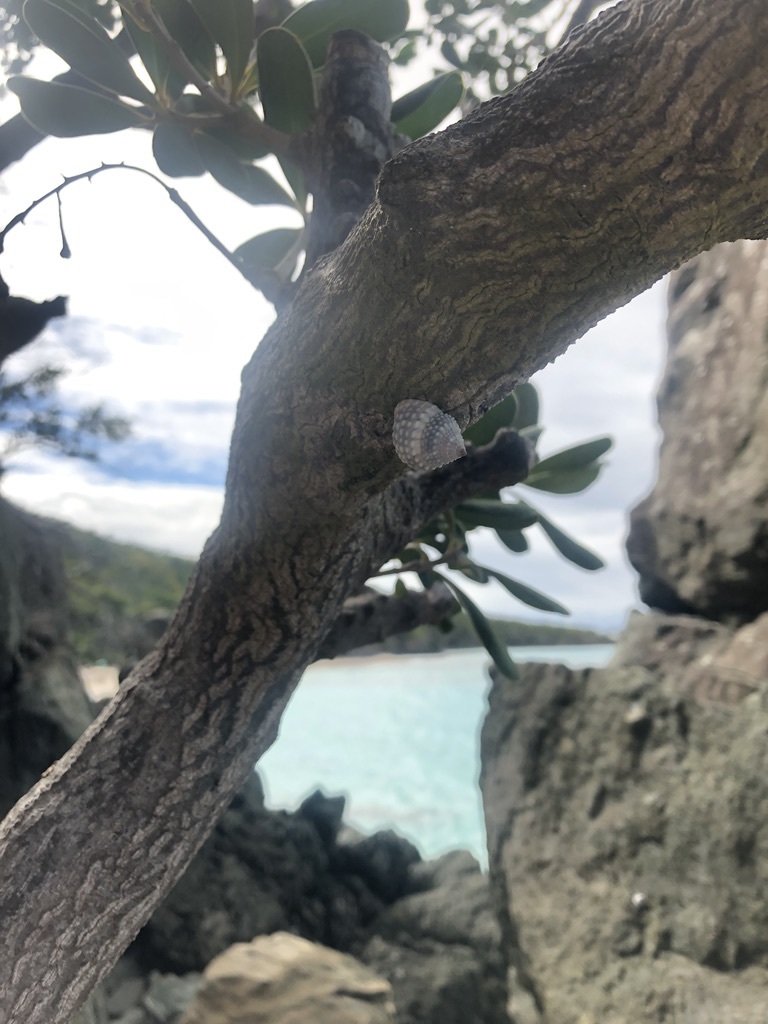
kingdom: Animalia
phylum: Mollusca
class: Gastropoda
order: Littorinimorpha
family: Littorinidae
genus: Cenchritis
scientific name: Cenchritis muricatus
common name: Beaded periwinkle
